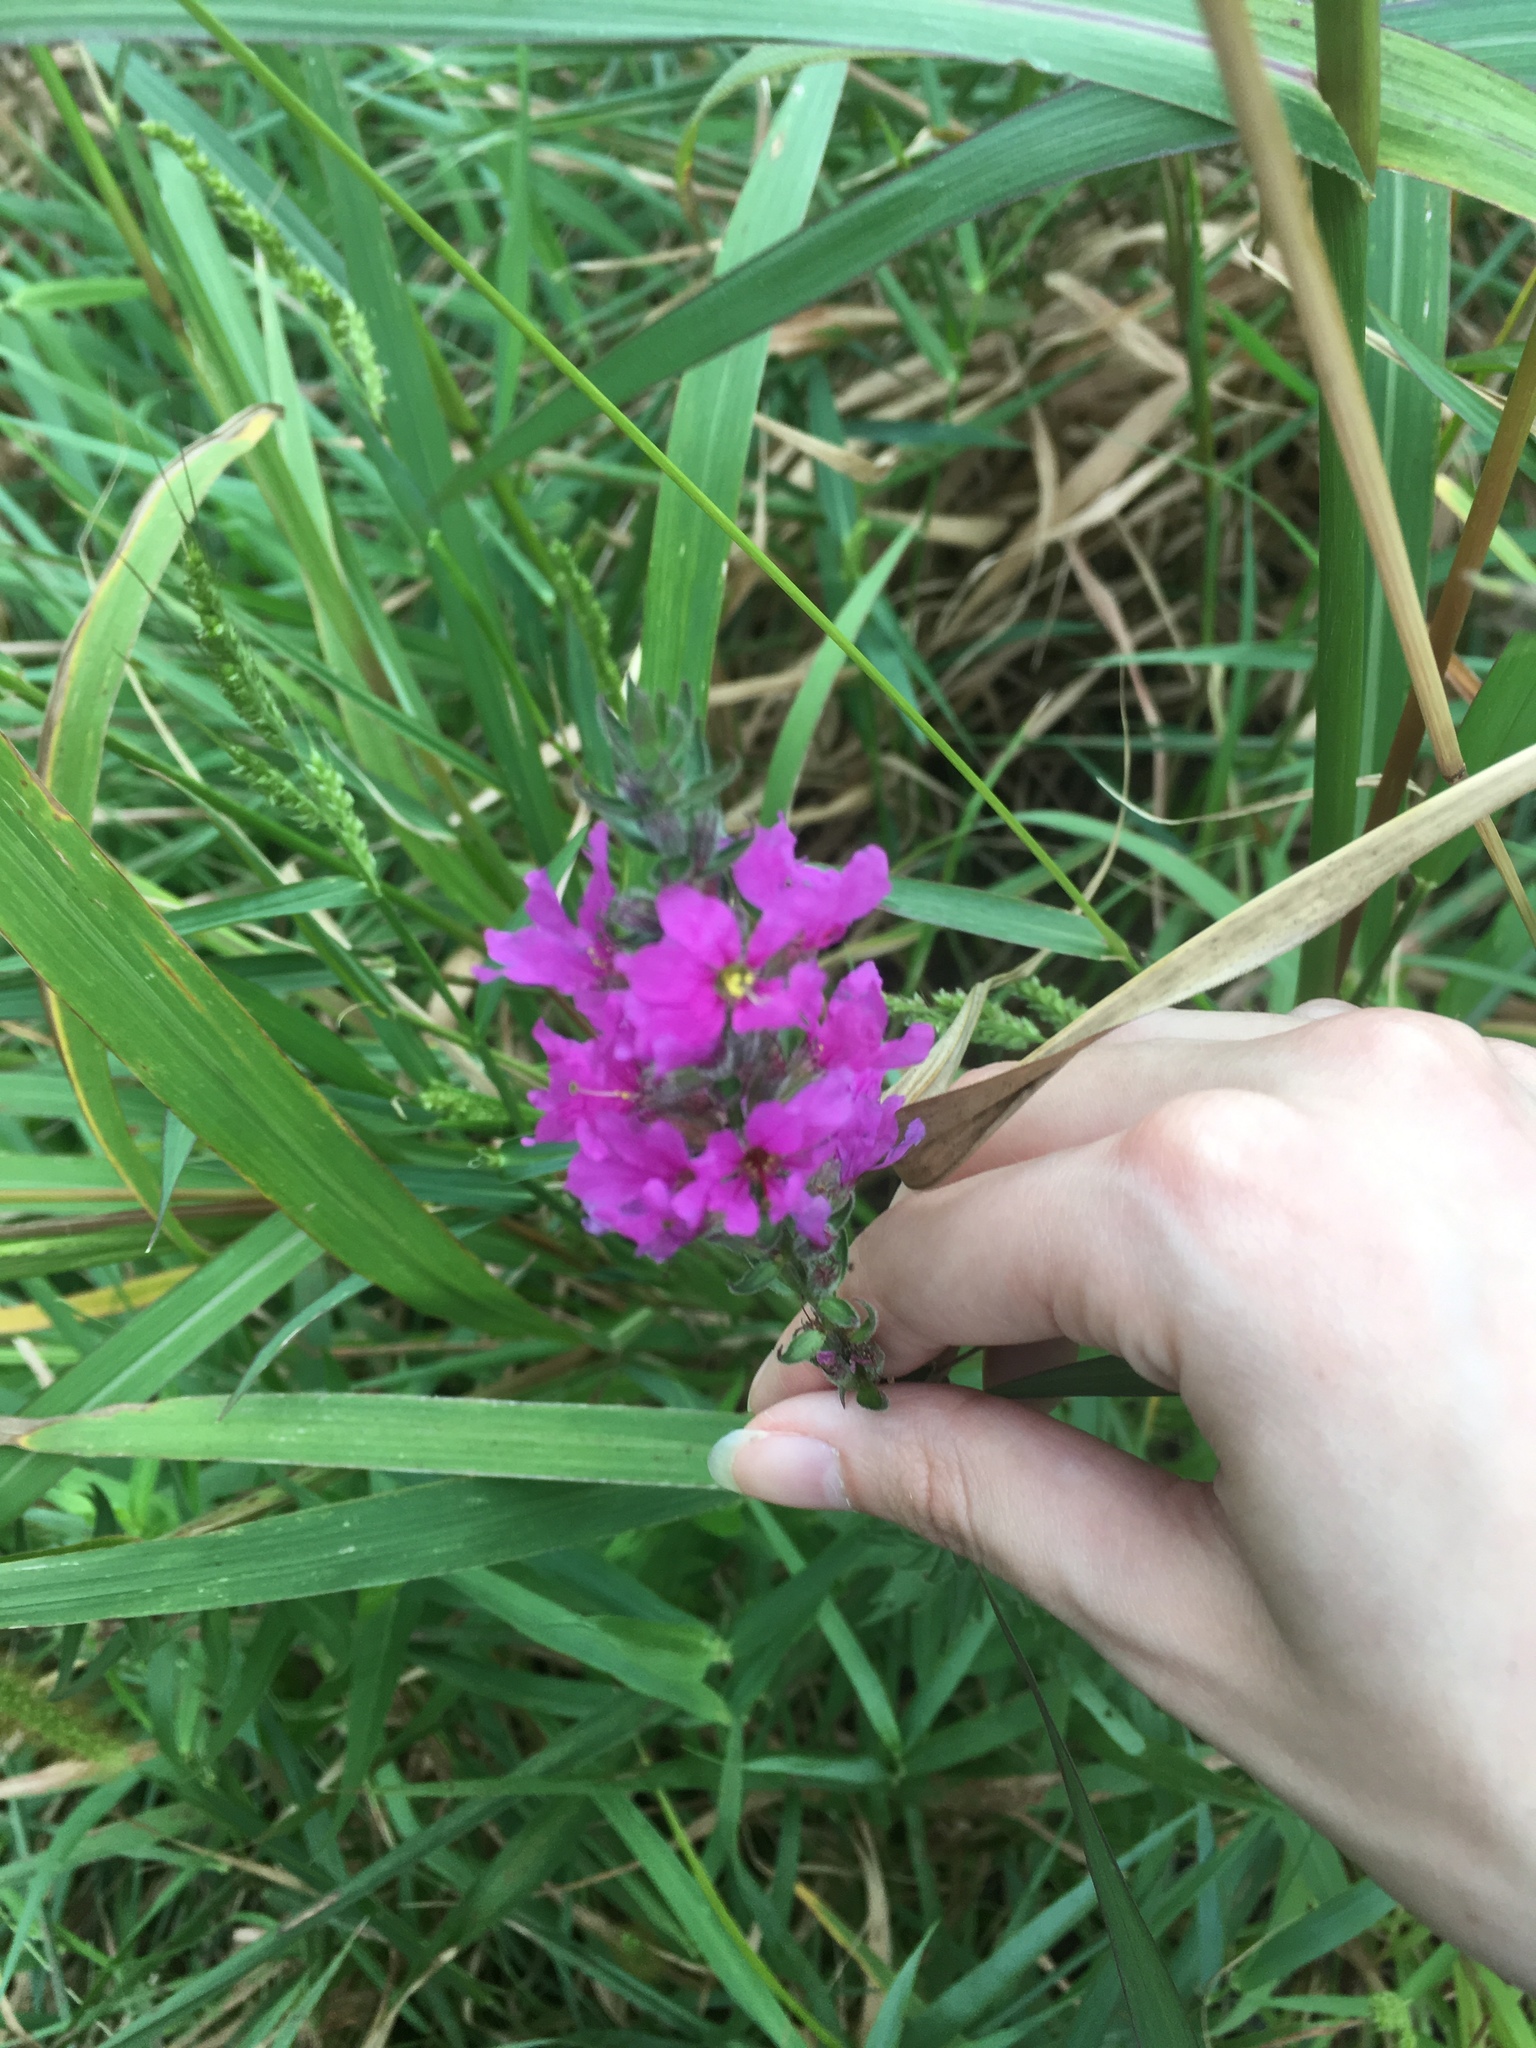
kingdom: Plantae
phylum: Tracheophyta
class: Magnoliopsida
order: Myrtales
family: Lythraceae
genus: Lythrum
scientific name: Lythrum salicaria
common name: Purple loosestrife
